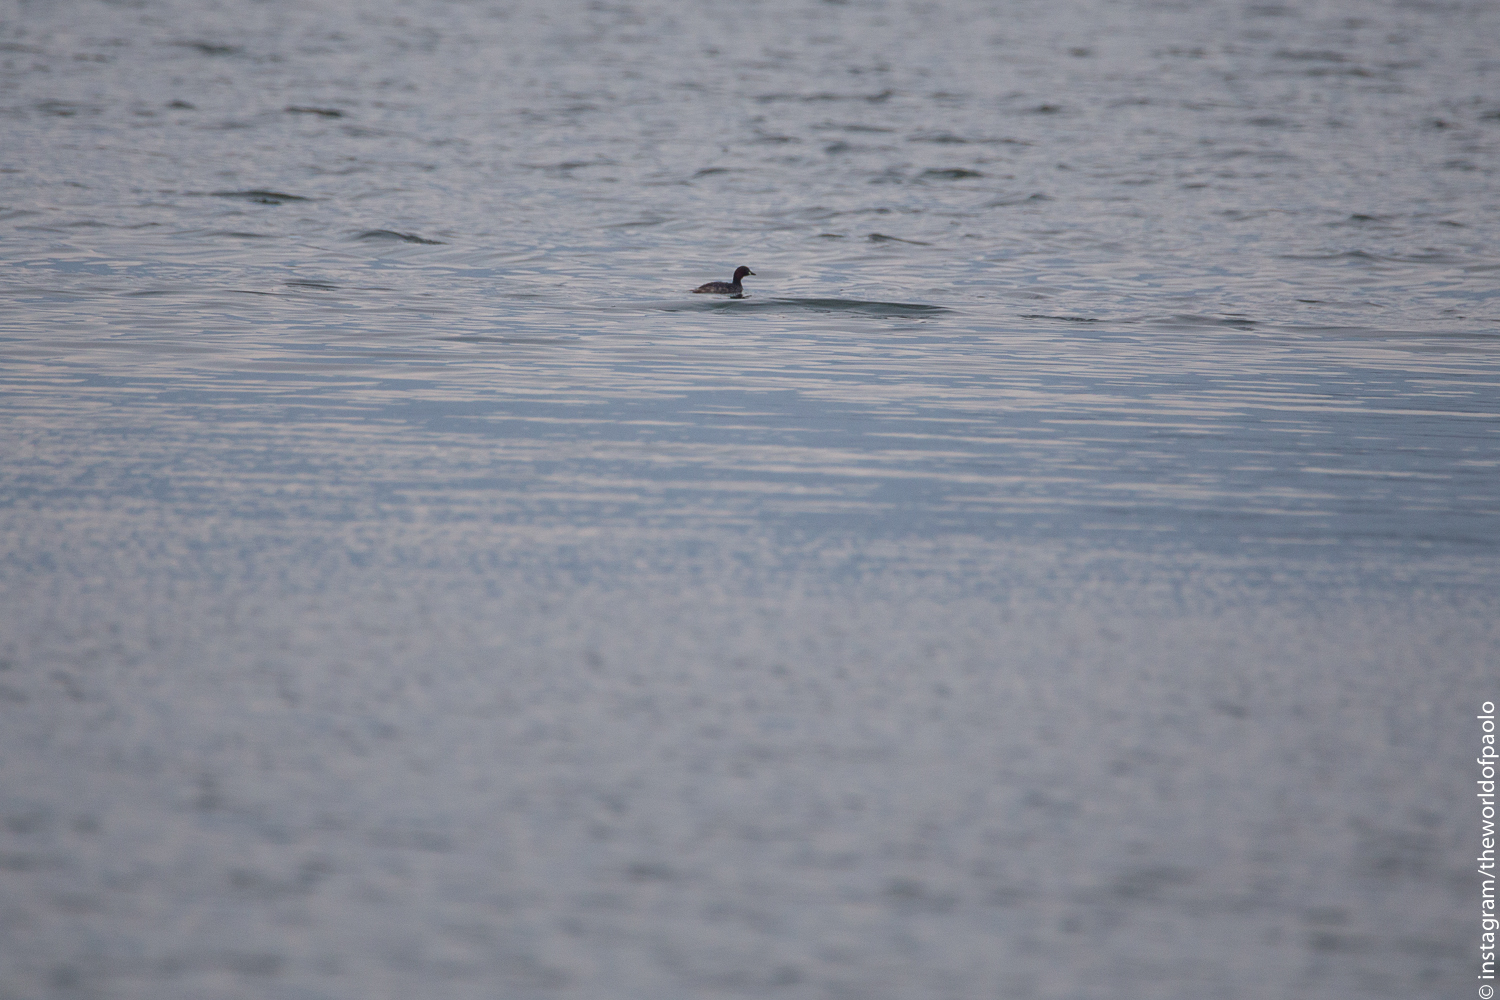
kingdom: Animalia
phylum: Chordata
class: Aves
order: Podicipediformes
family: Podicipedidae
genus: Tachybaptus
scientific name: Tachybaptus ruficollis
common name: Little grebe
